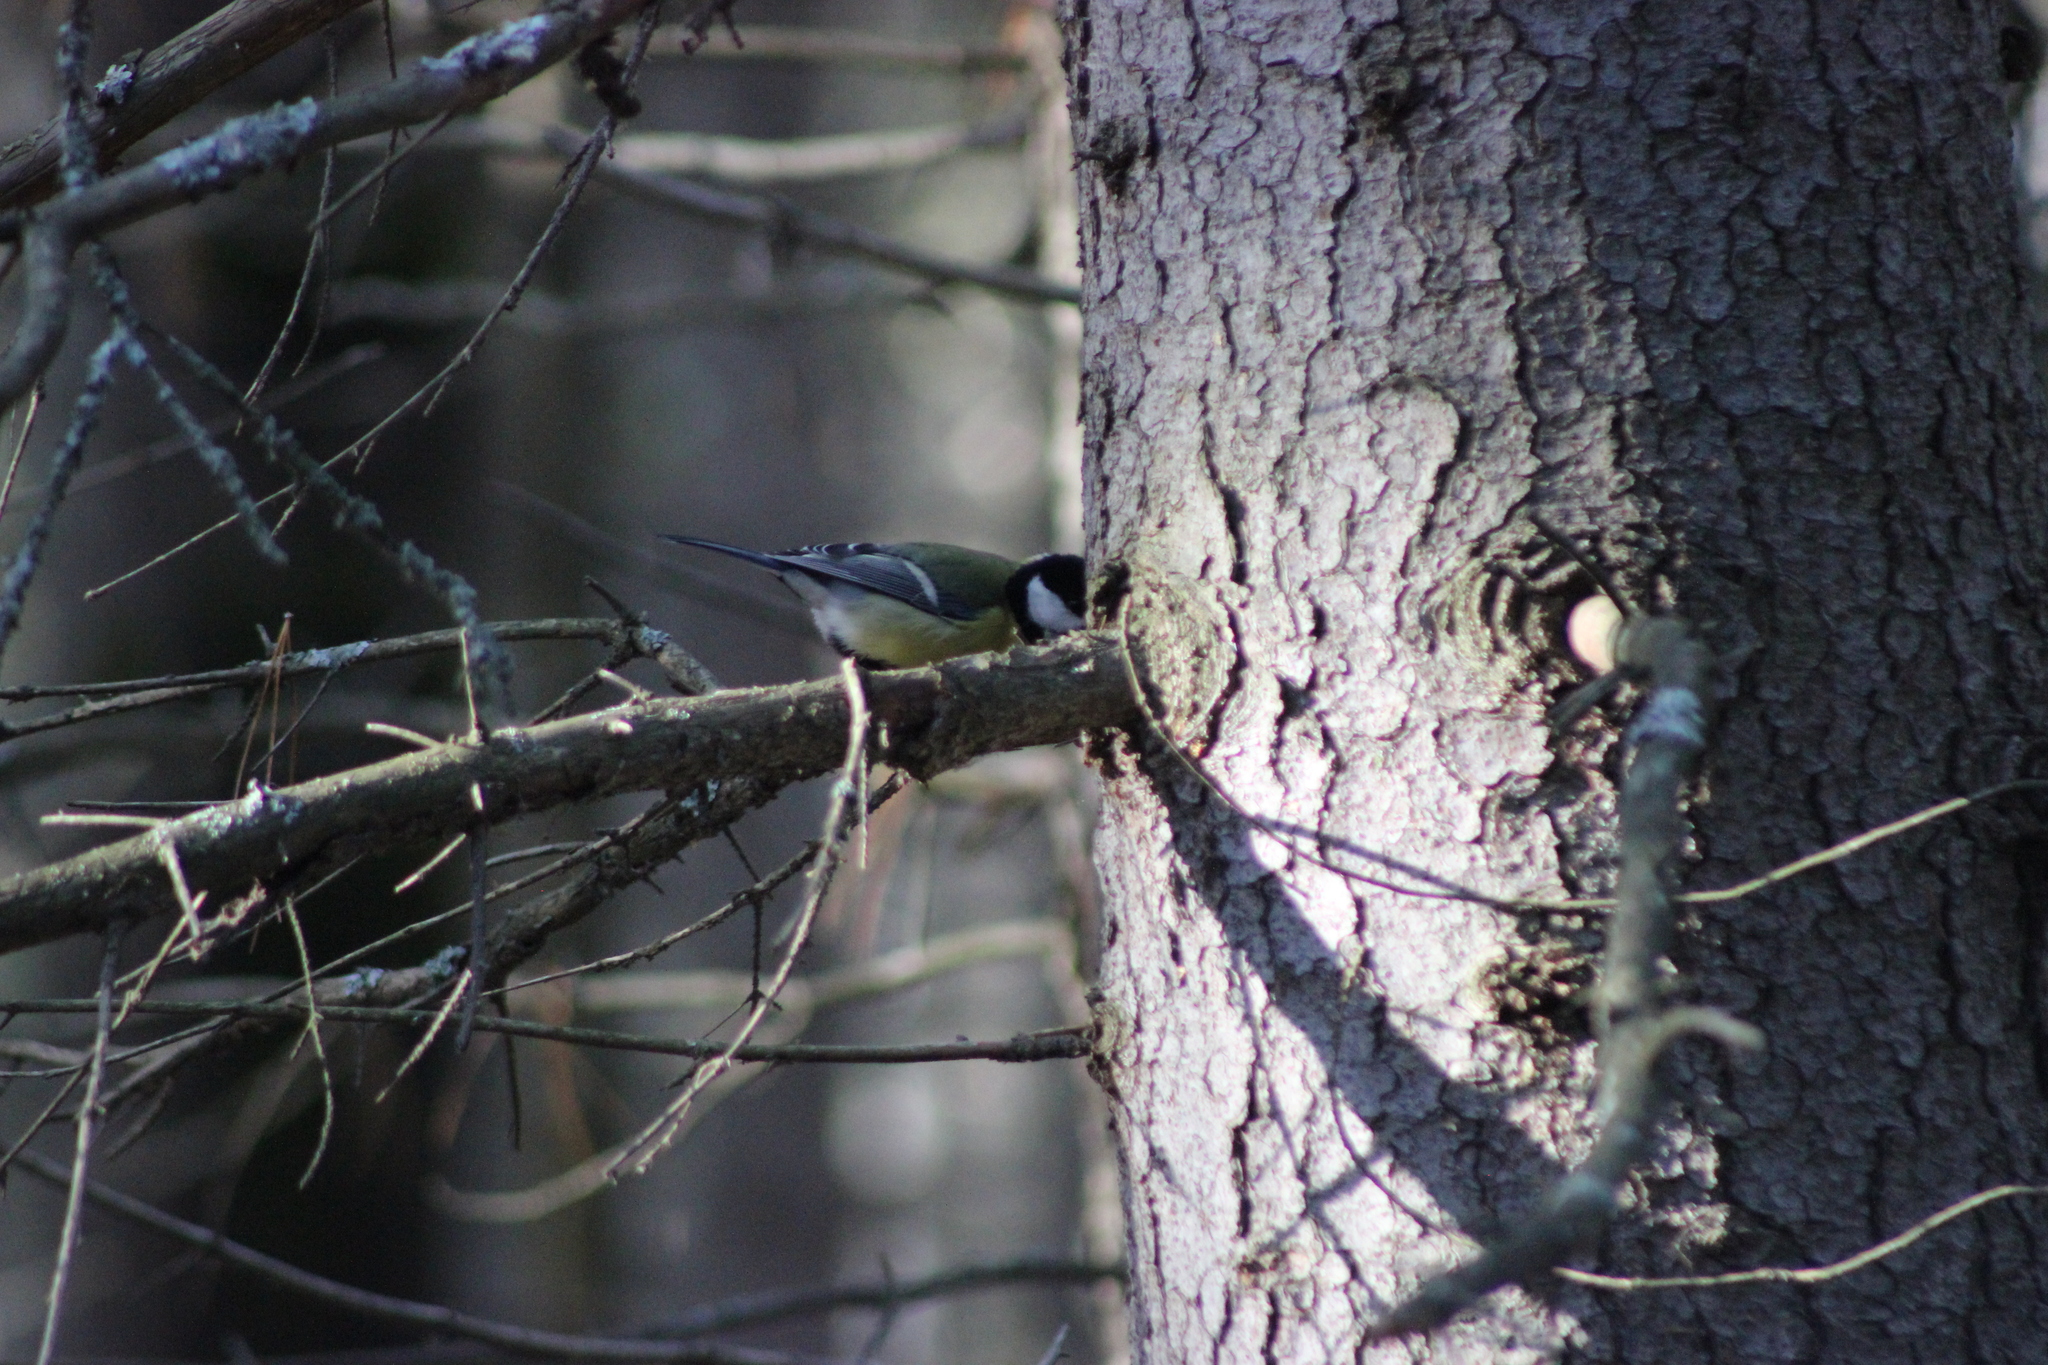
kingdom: Animalia
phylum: Chordata
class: Aves
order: Passeriformes
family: Paridae
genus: Parus
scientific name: Parus major
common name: Great tit
